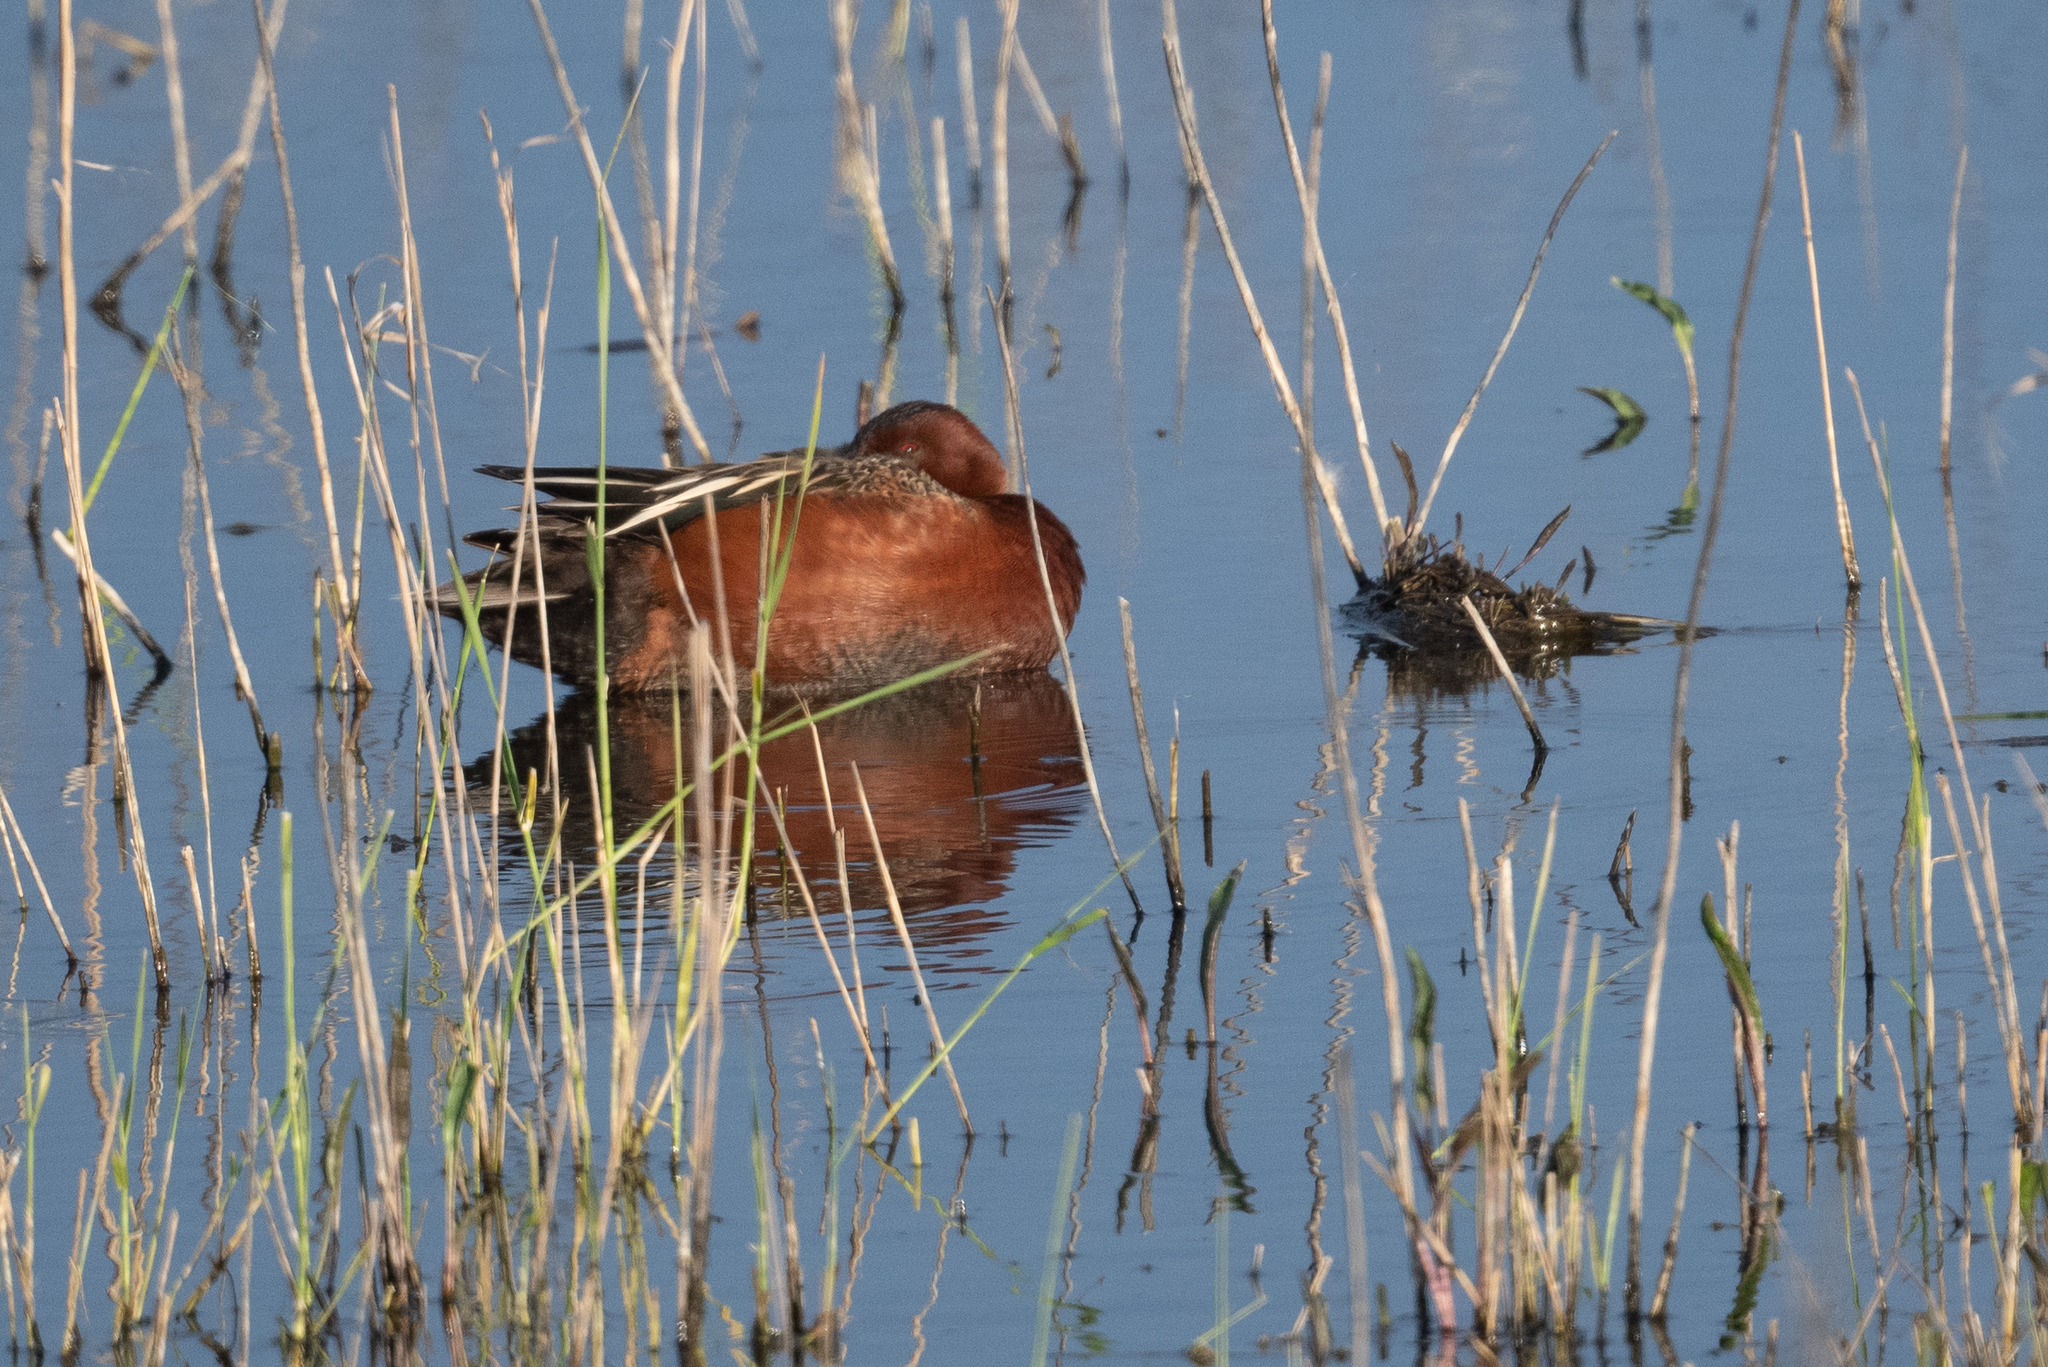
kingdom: Animalia
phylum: Chordata
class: Aves
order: Anseriformes
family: Anatidae
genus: Spatula
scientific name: Spatula cyanoptera
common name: Cinnamon teal
